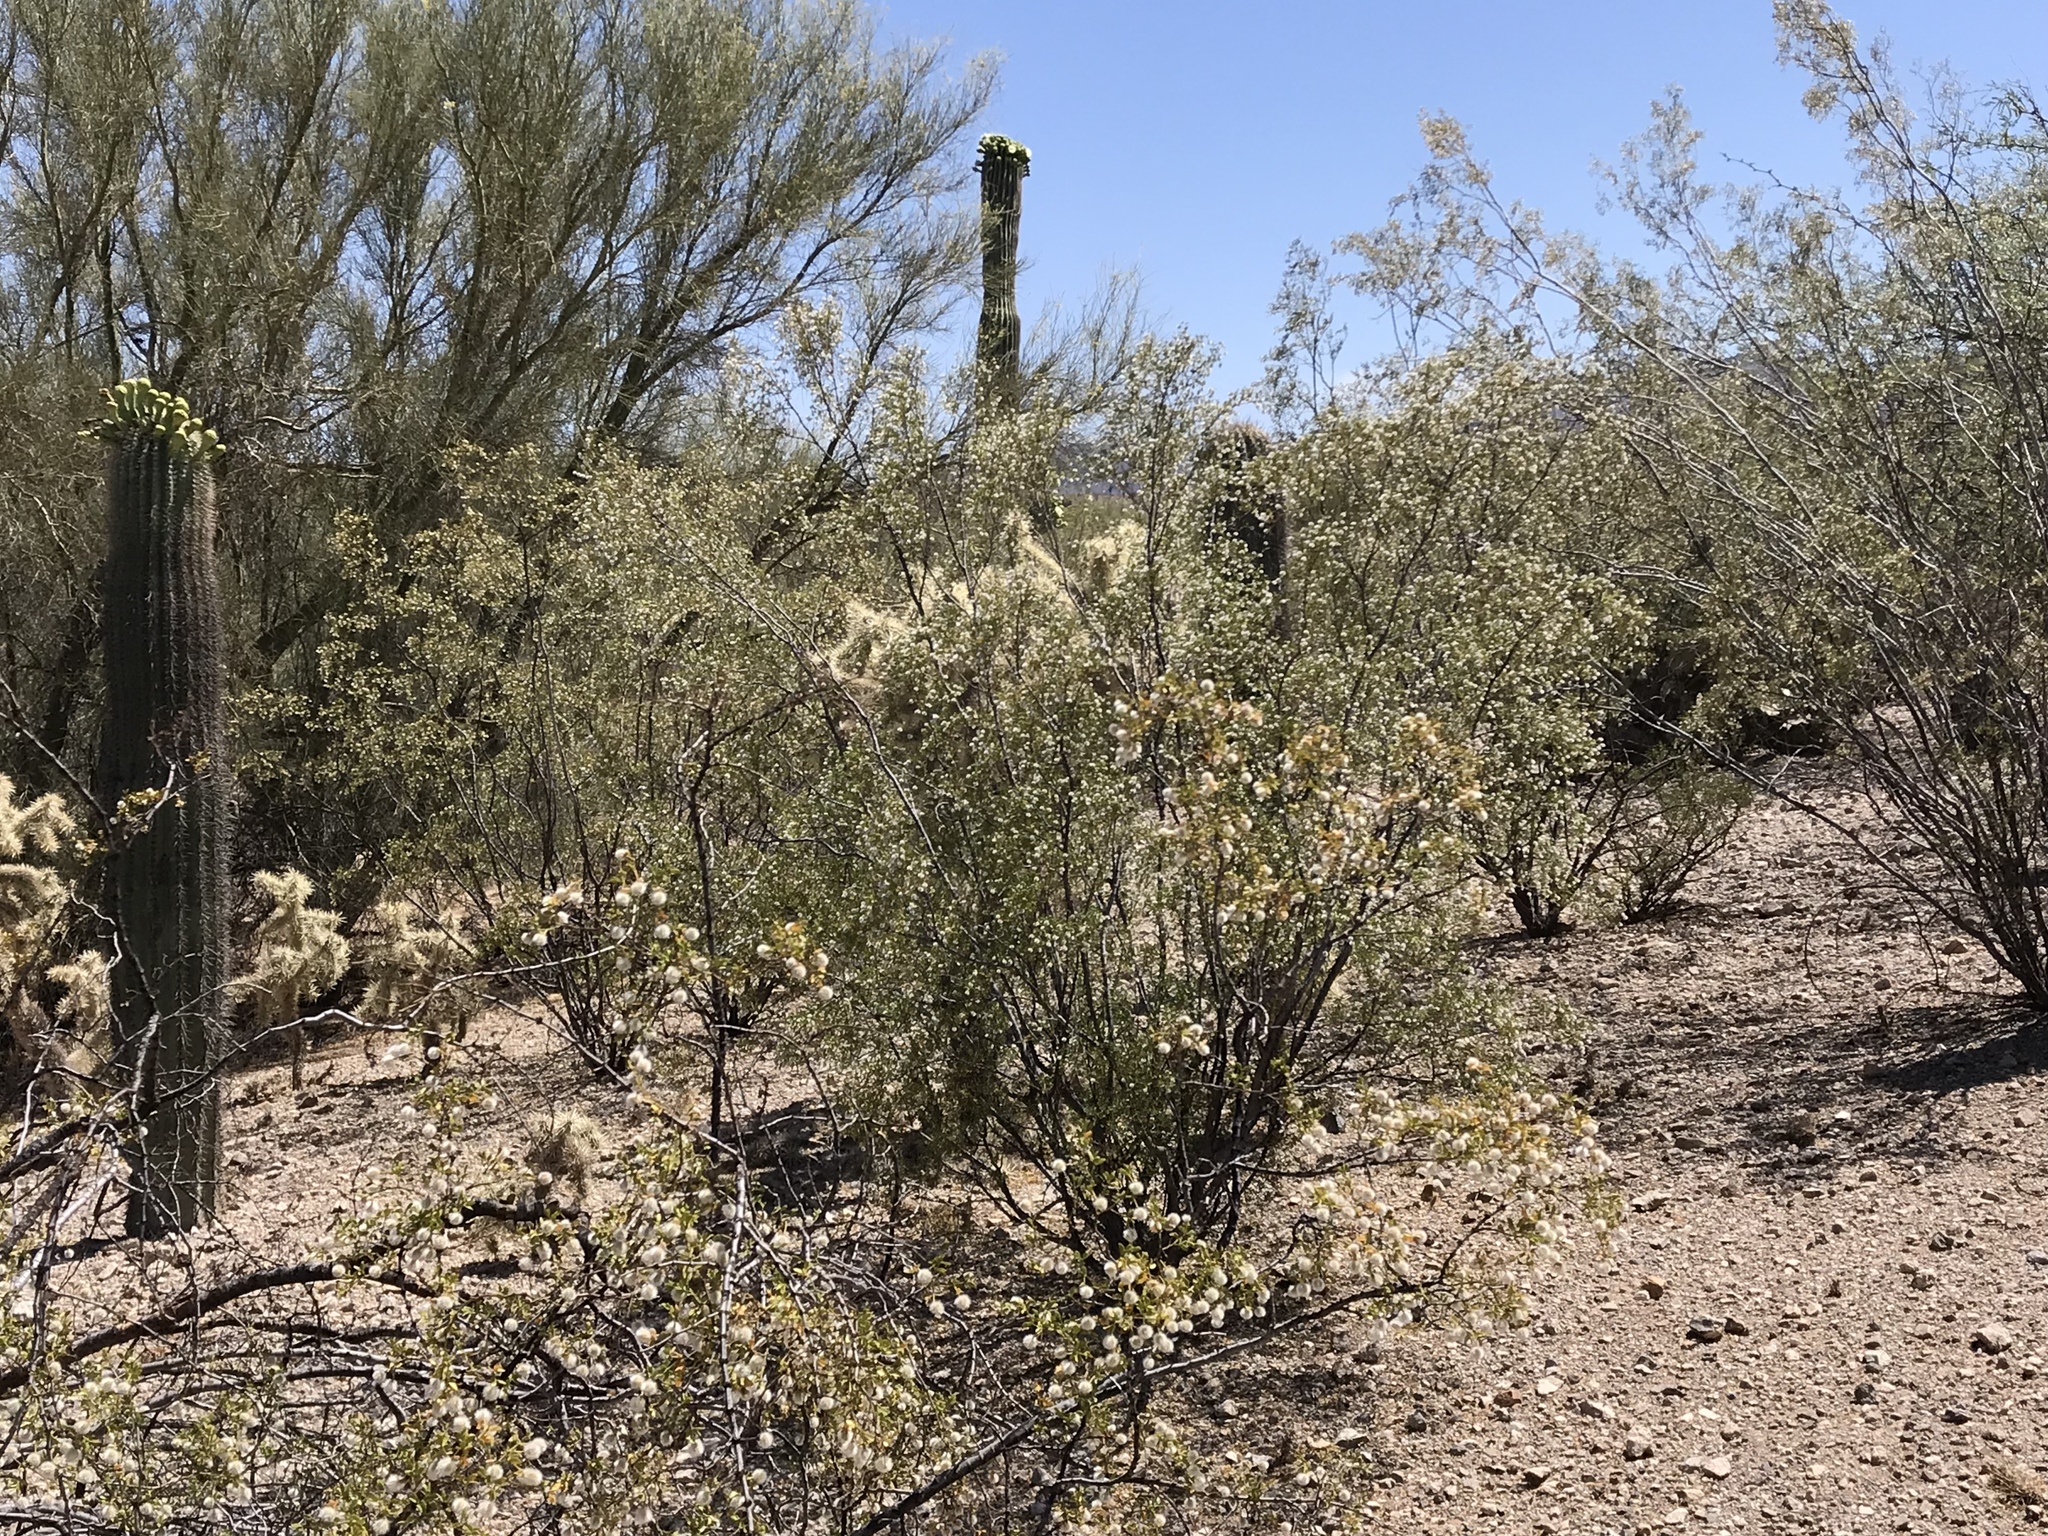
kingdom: Plantae
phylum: Tracheophyta
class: Magnoliopsida
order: Zygophyllales
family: Zygophyllaceae
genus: Larrea
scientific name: Larrea tridentata
